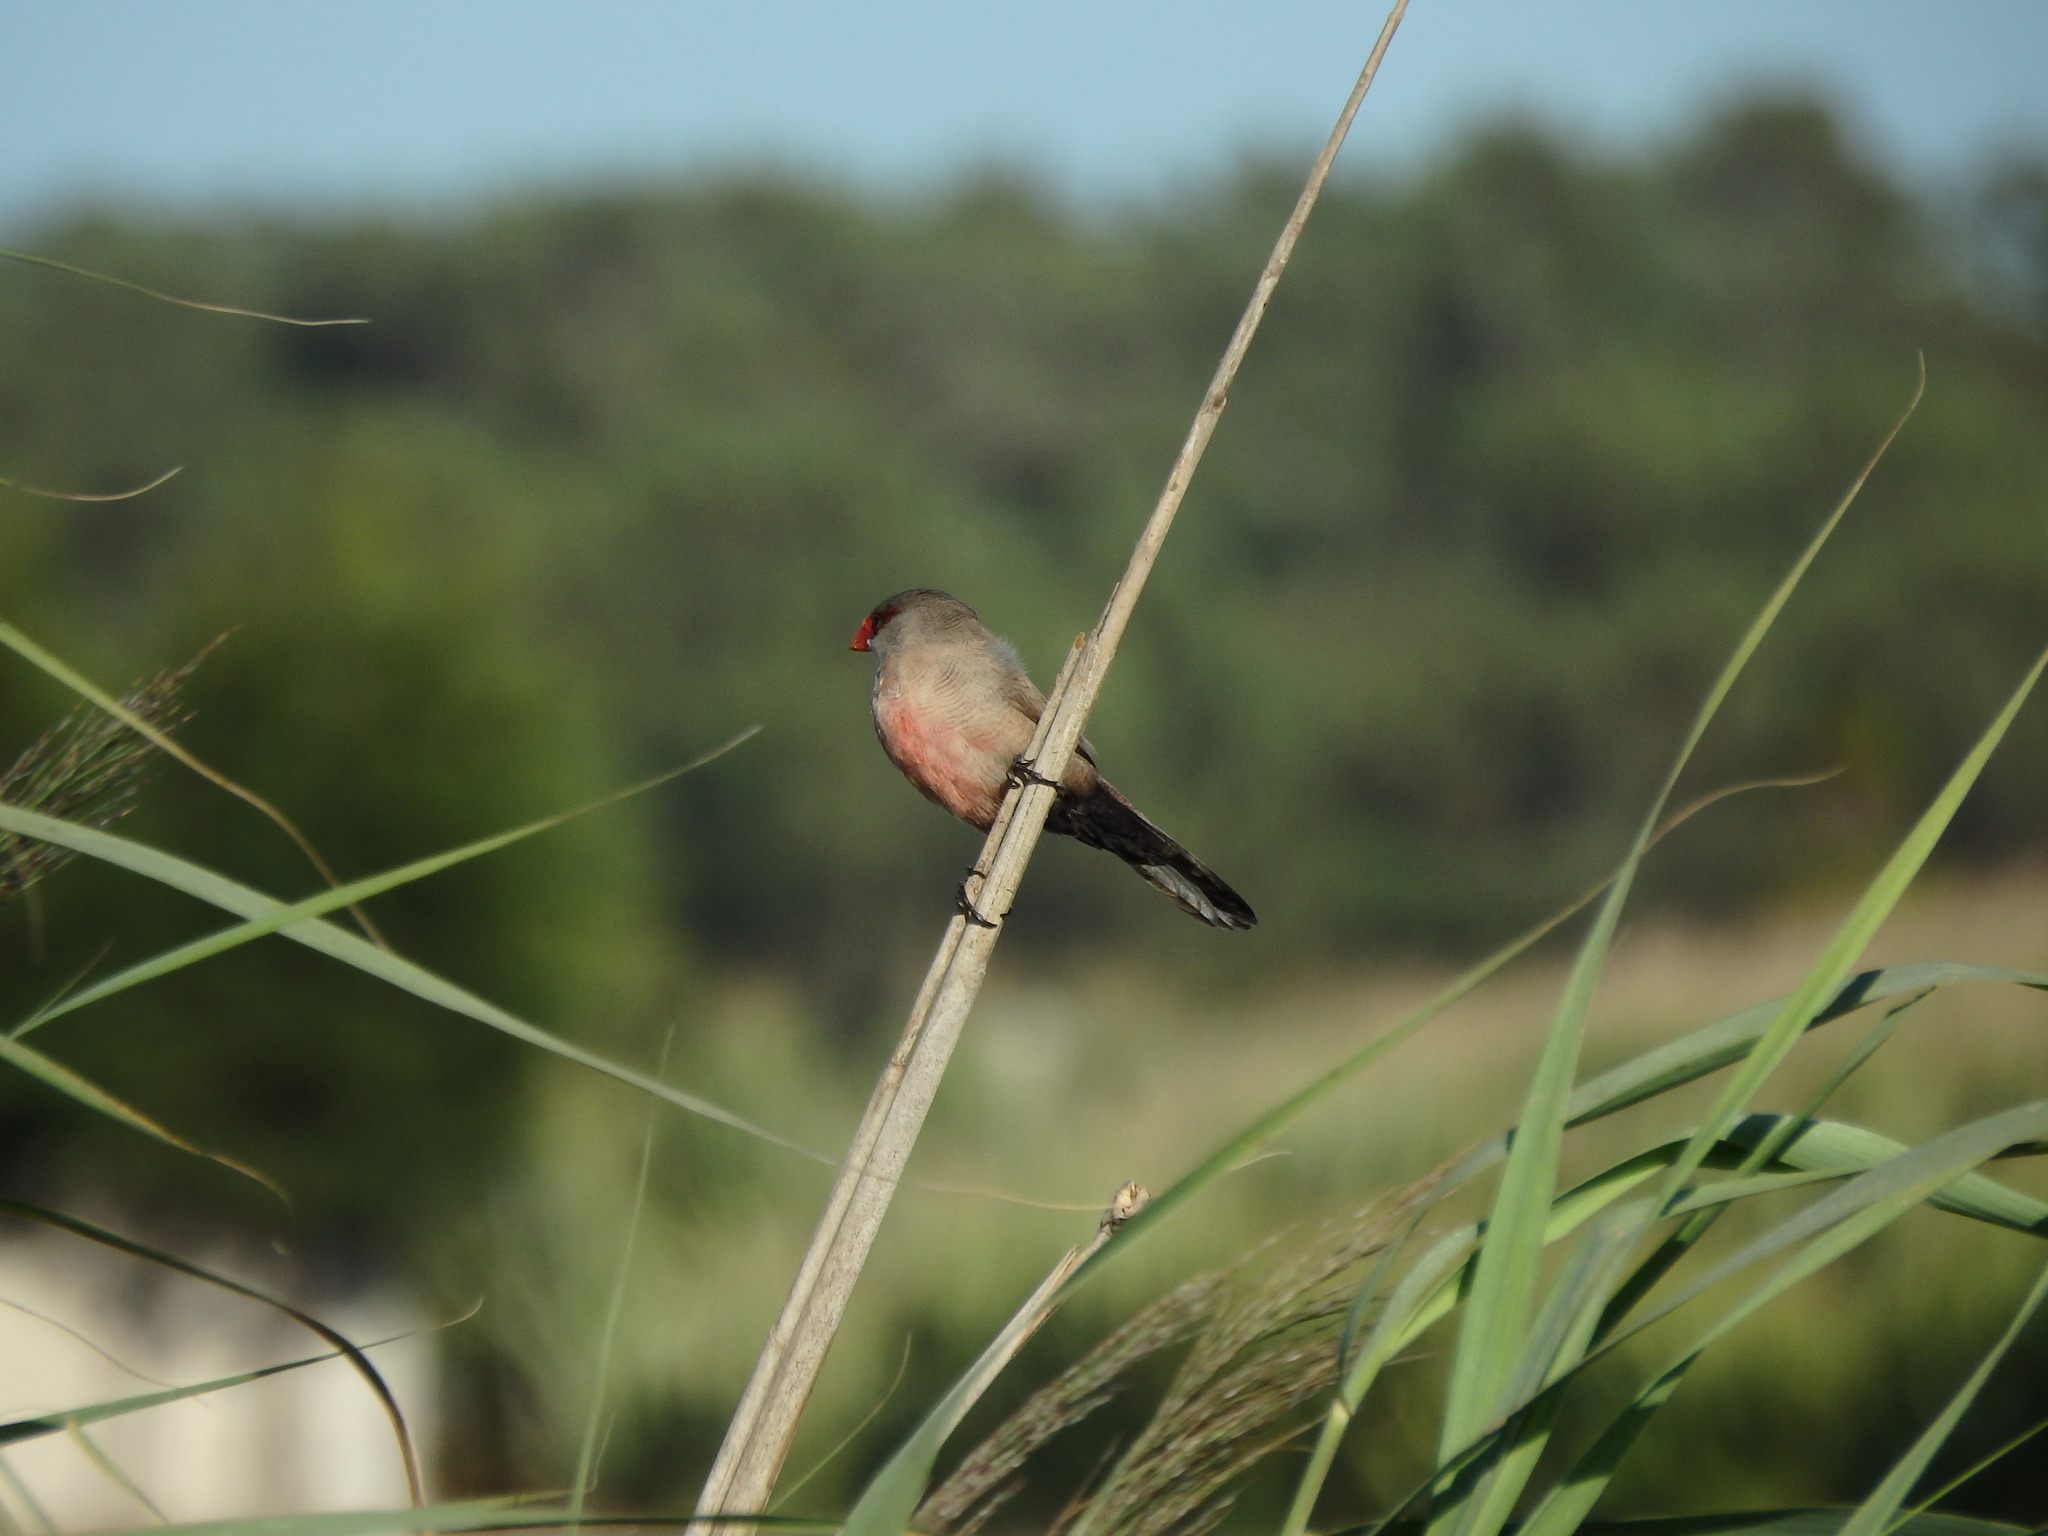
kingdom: Animalia
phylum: Chordata
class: Aves
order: Passeriformes
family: Estrildidae
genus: Estrilda
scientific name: Estrilda astrild
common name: Common waxbill
